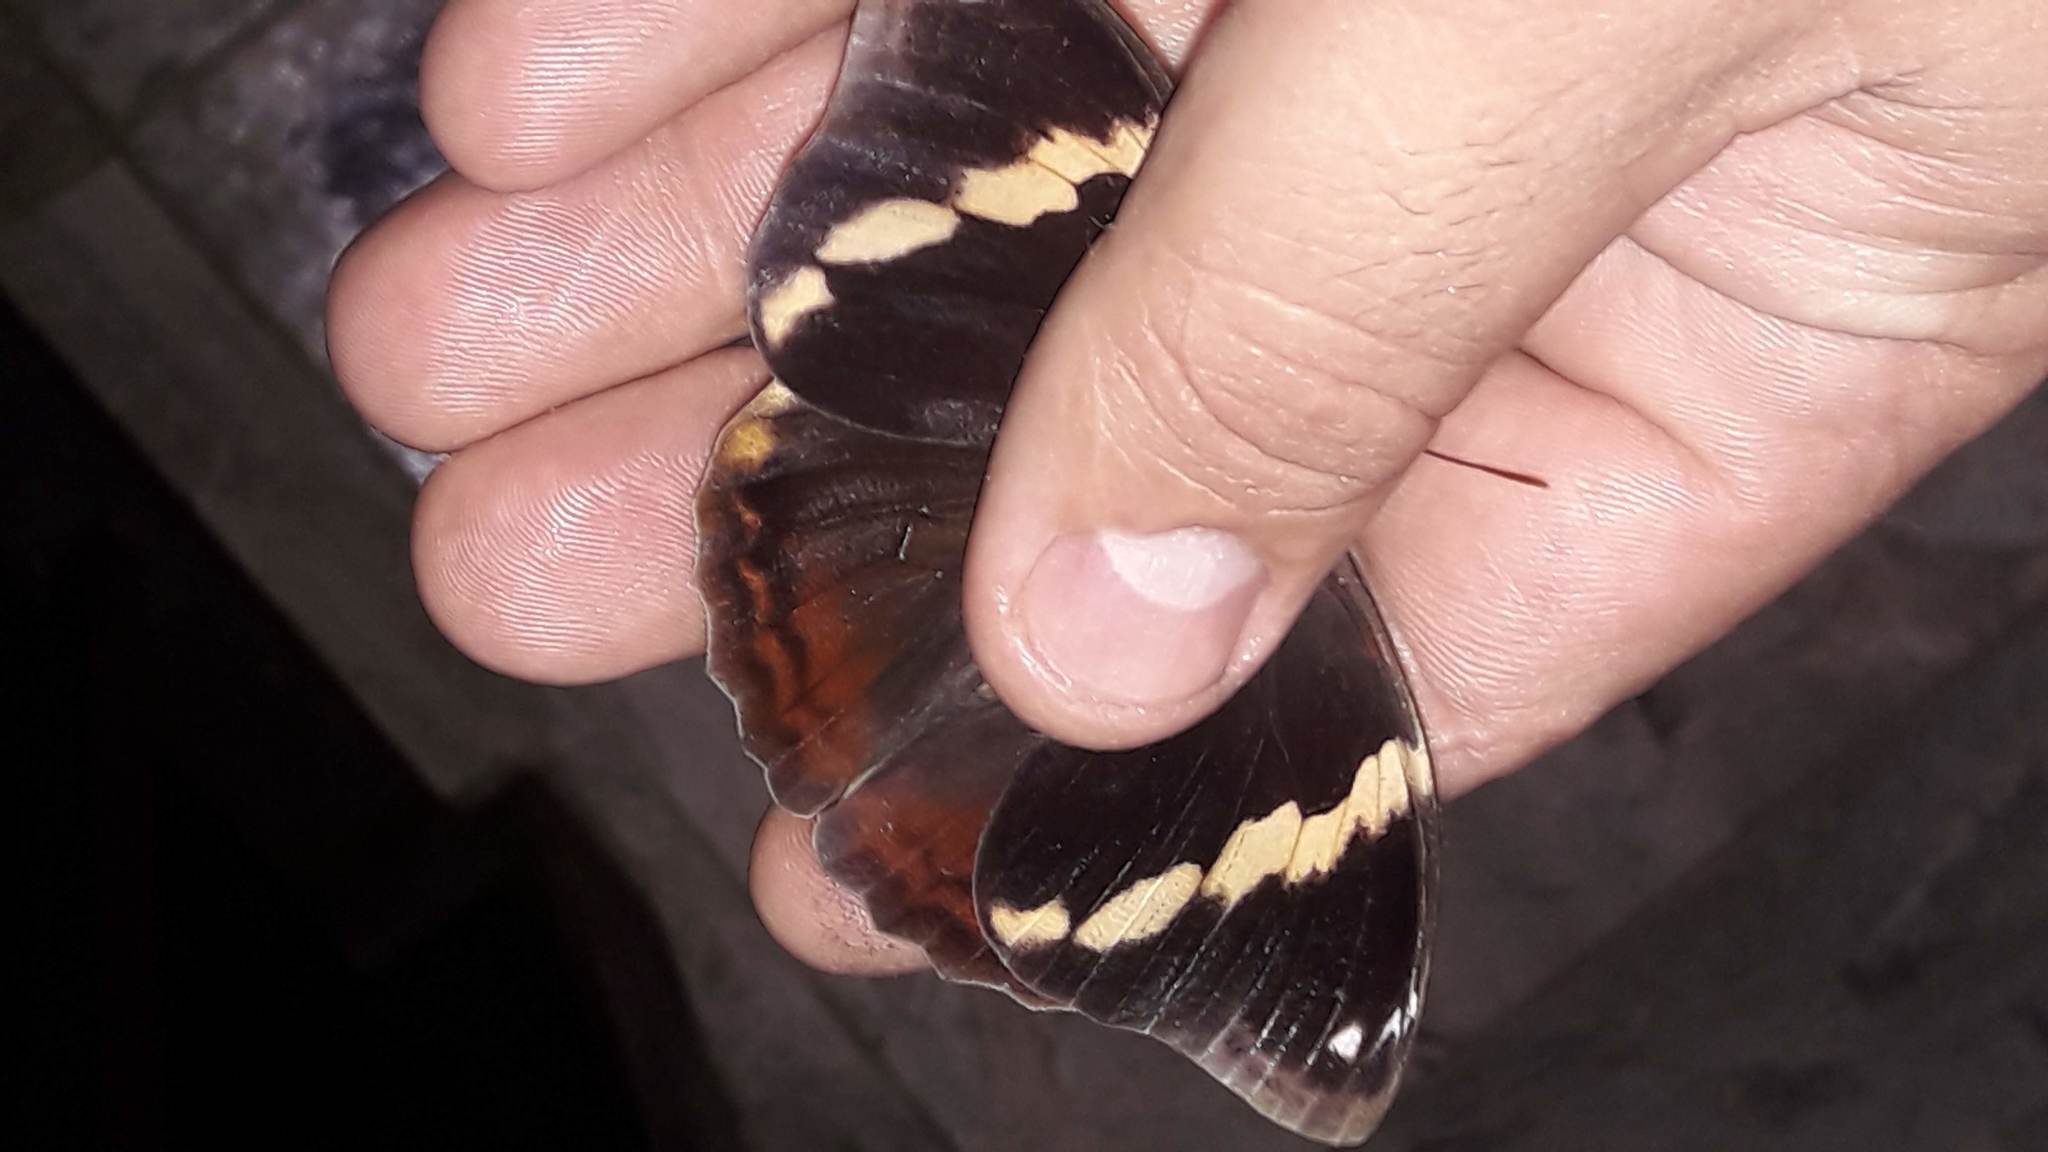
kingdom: Animalia
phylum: Arthropoda
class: Insecta
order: Lepidoptera
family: Nymphalidae
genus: Opsiphanes
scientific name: Opsiphanes cassiae
